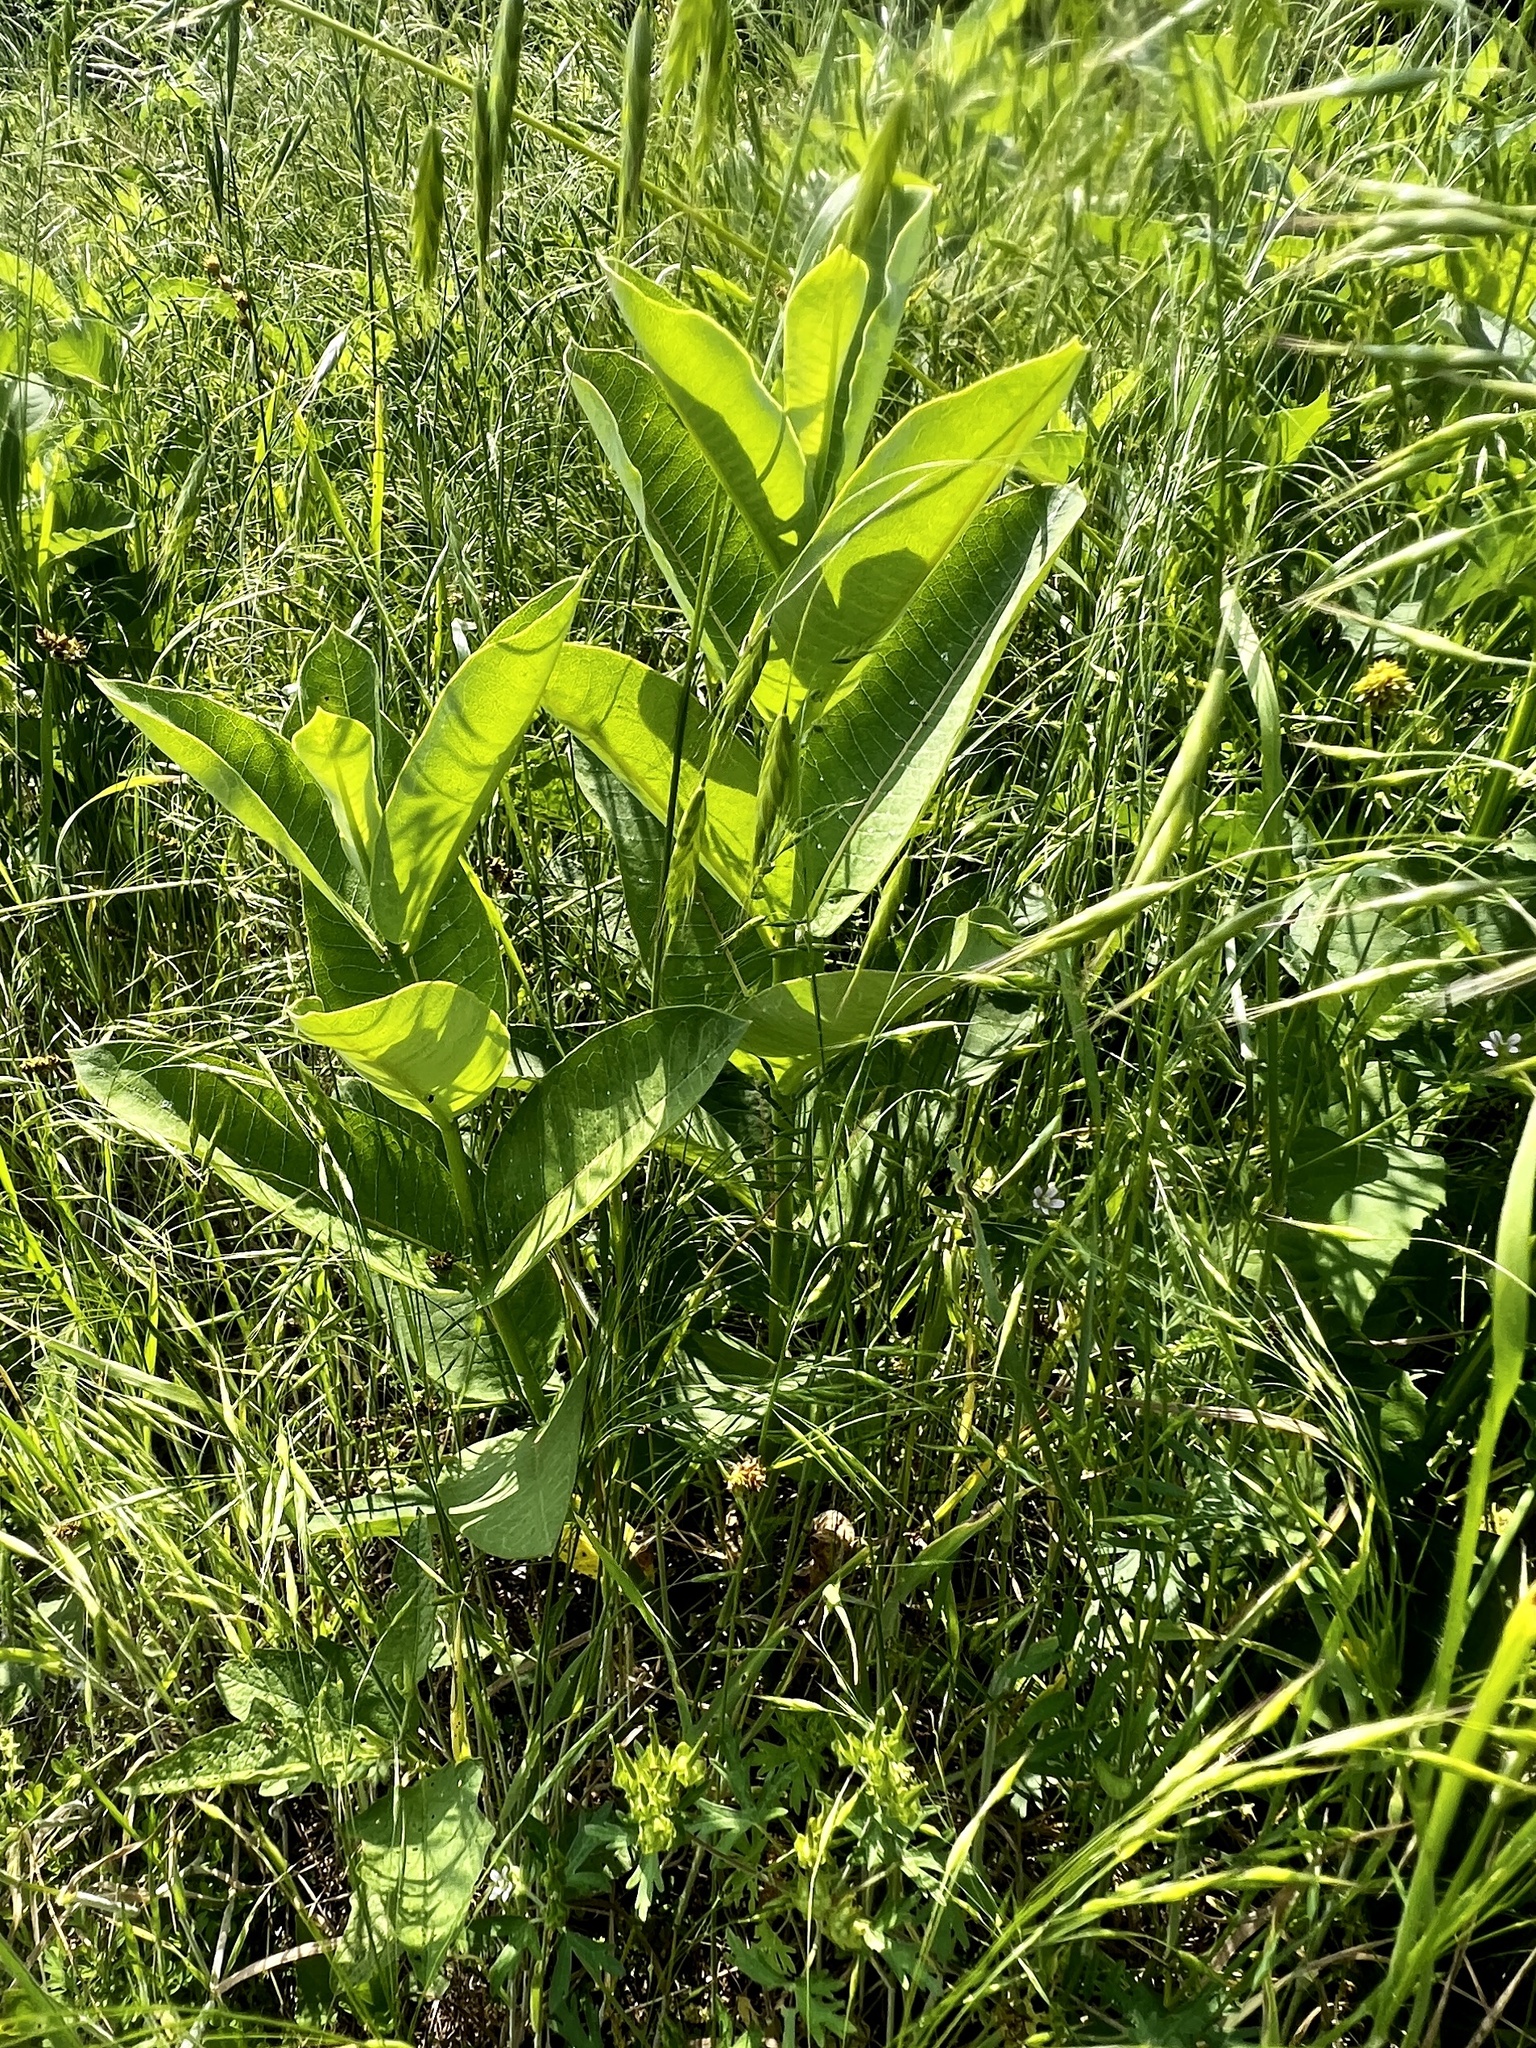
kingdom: Plantae
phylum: Tracheophyta
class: Magnoliopsida
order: Gentianales
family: Apocynaceae
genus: Asclepias
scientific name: Asclepias syriaca
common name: Common milkweed
